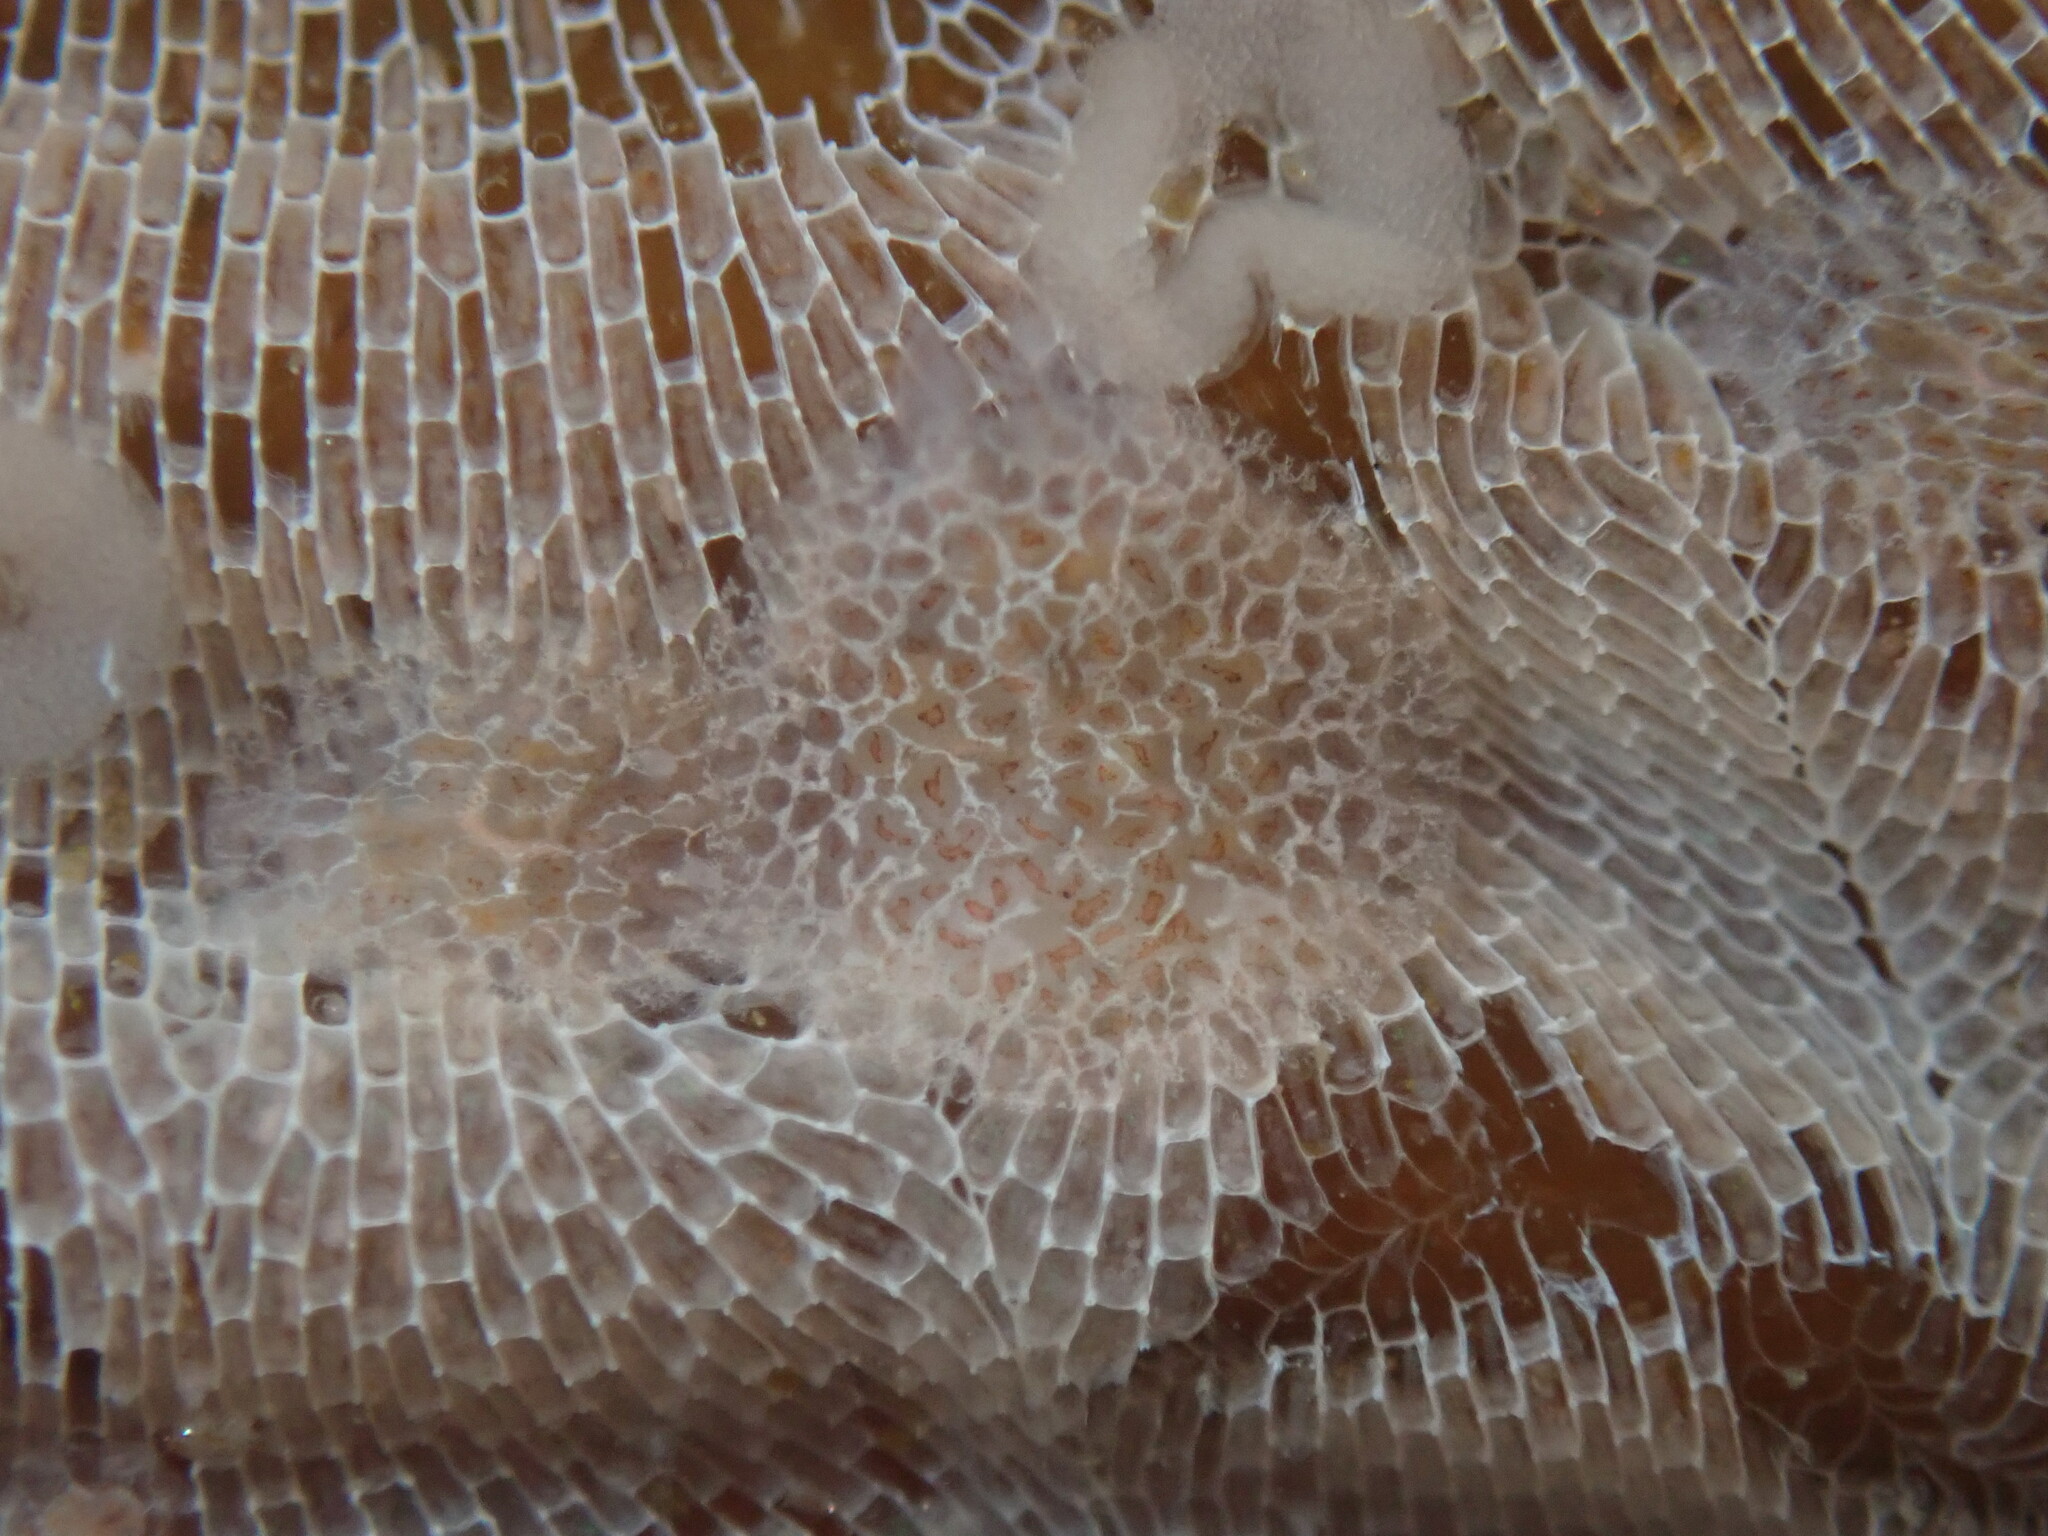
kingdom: Animalia
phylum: Mollusca
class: Gastropoda
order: Nudibranchia
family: Corambidae
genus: Corambe
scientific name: Corambe steinbergae
